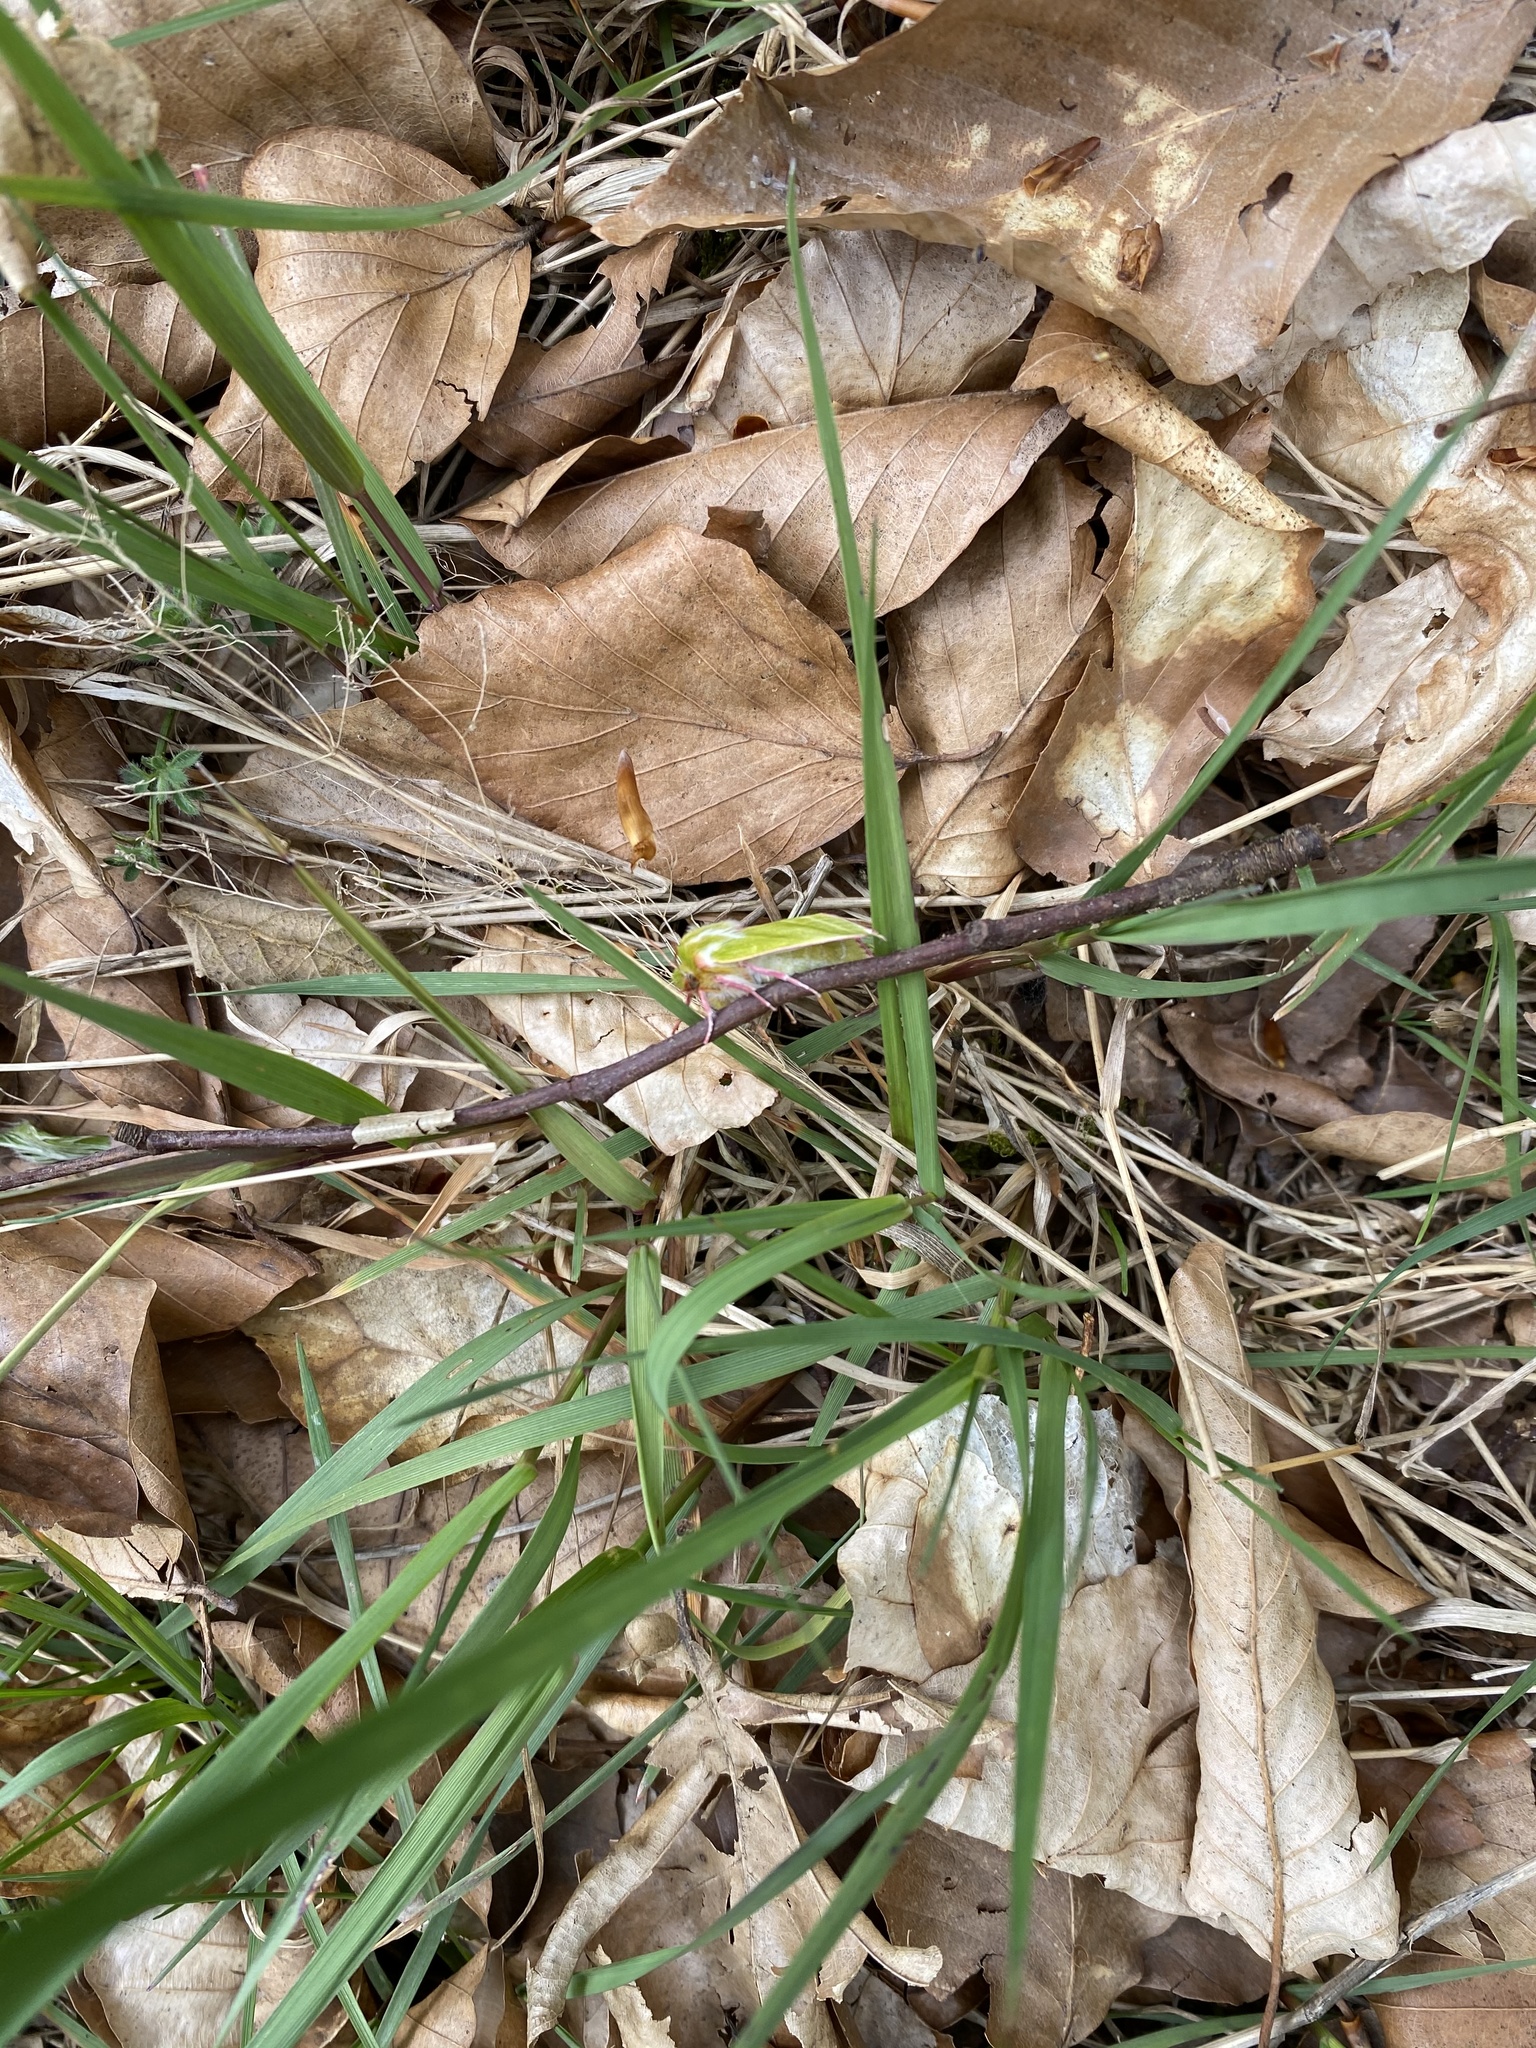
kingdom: Animalia
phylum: Arthropoda
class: Insecta
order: Lepidoptera
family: Nolidae
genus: Pseudoips
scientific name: Pseudoips prasinana
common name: Green silver-lines
